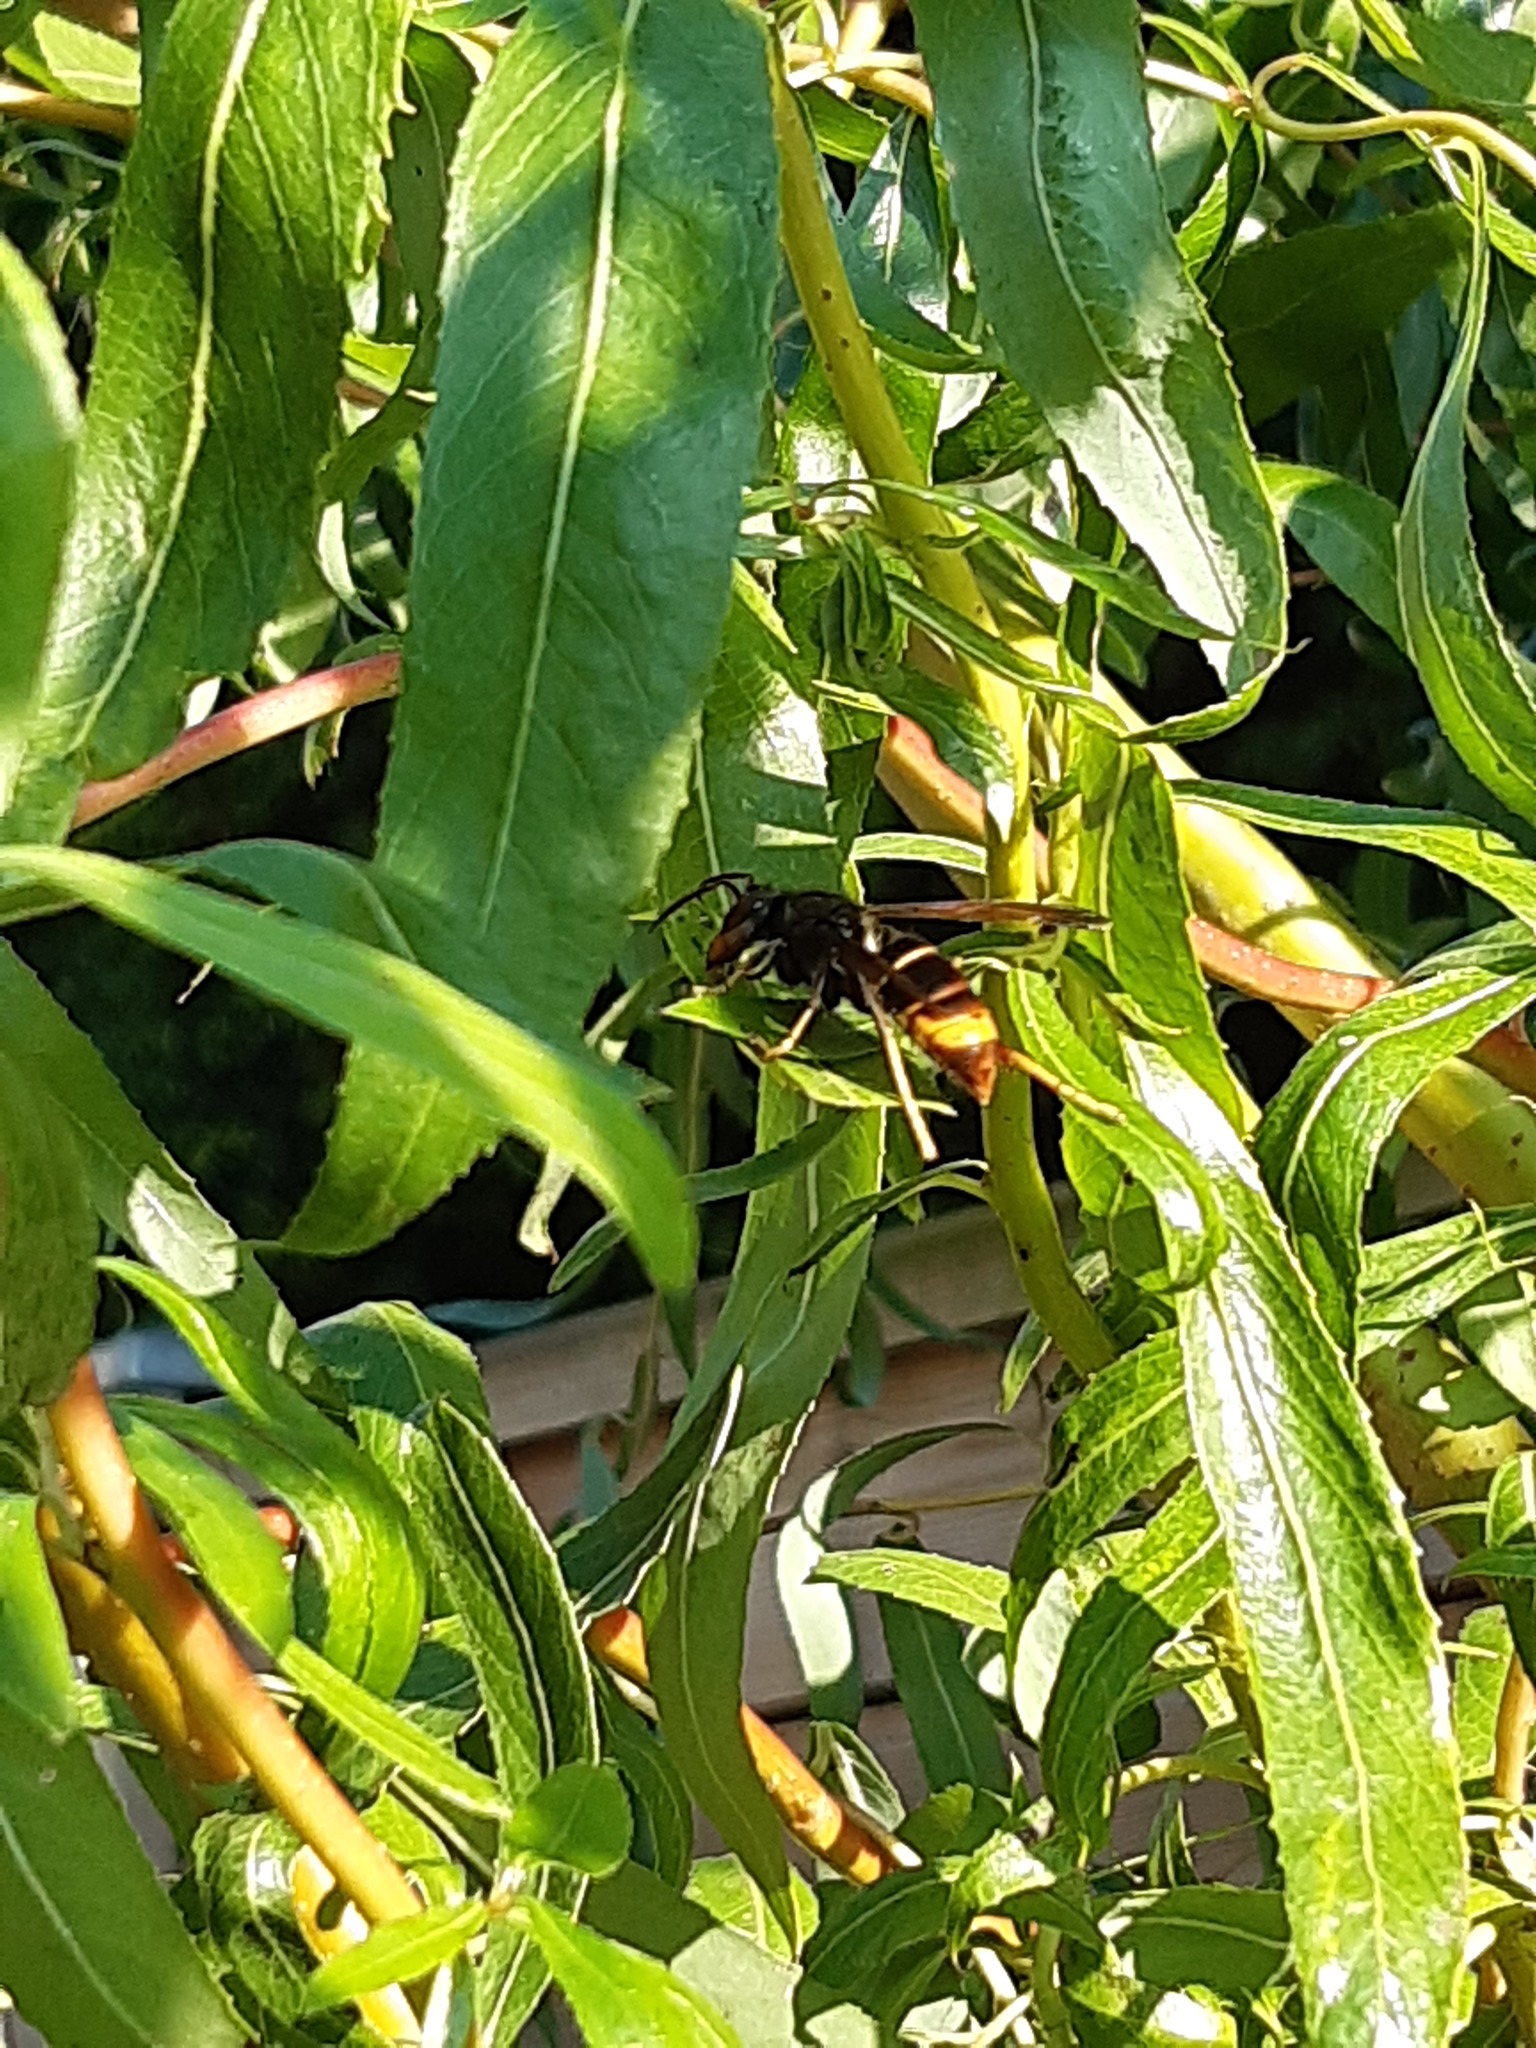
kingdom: Animalia
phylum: Arthropoda
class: Insecta
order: Hymenoptera
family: Vespidae
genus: Vespa
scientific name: Vespa velutina
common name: Asian hornet
